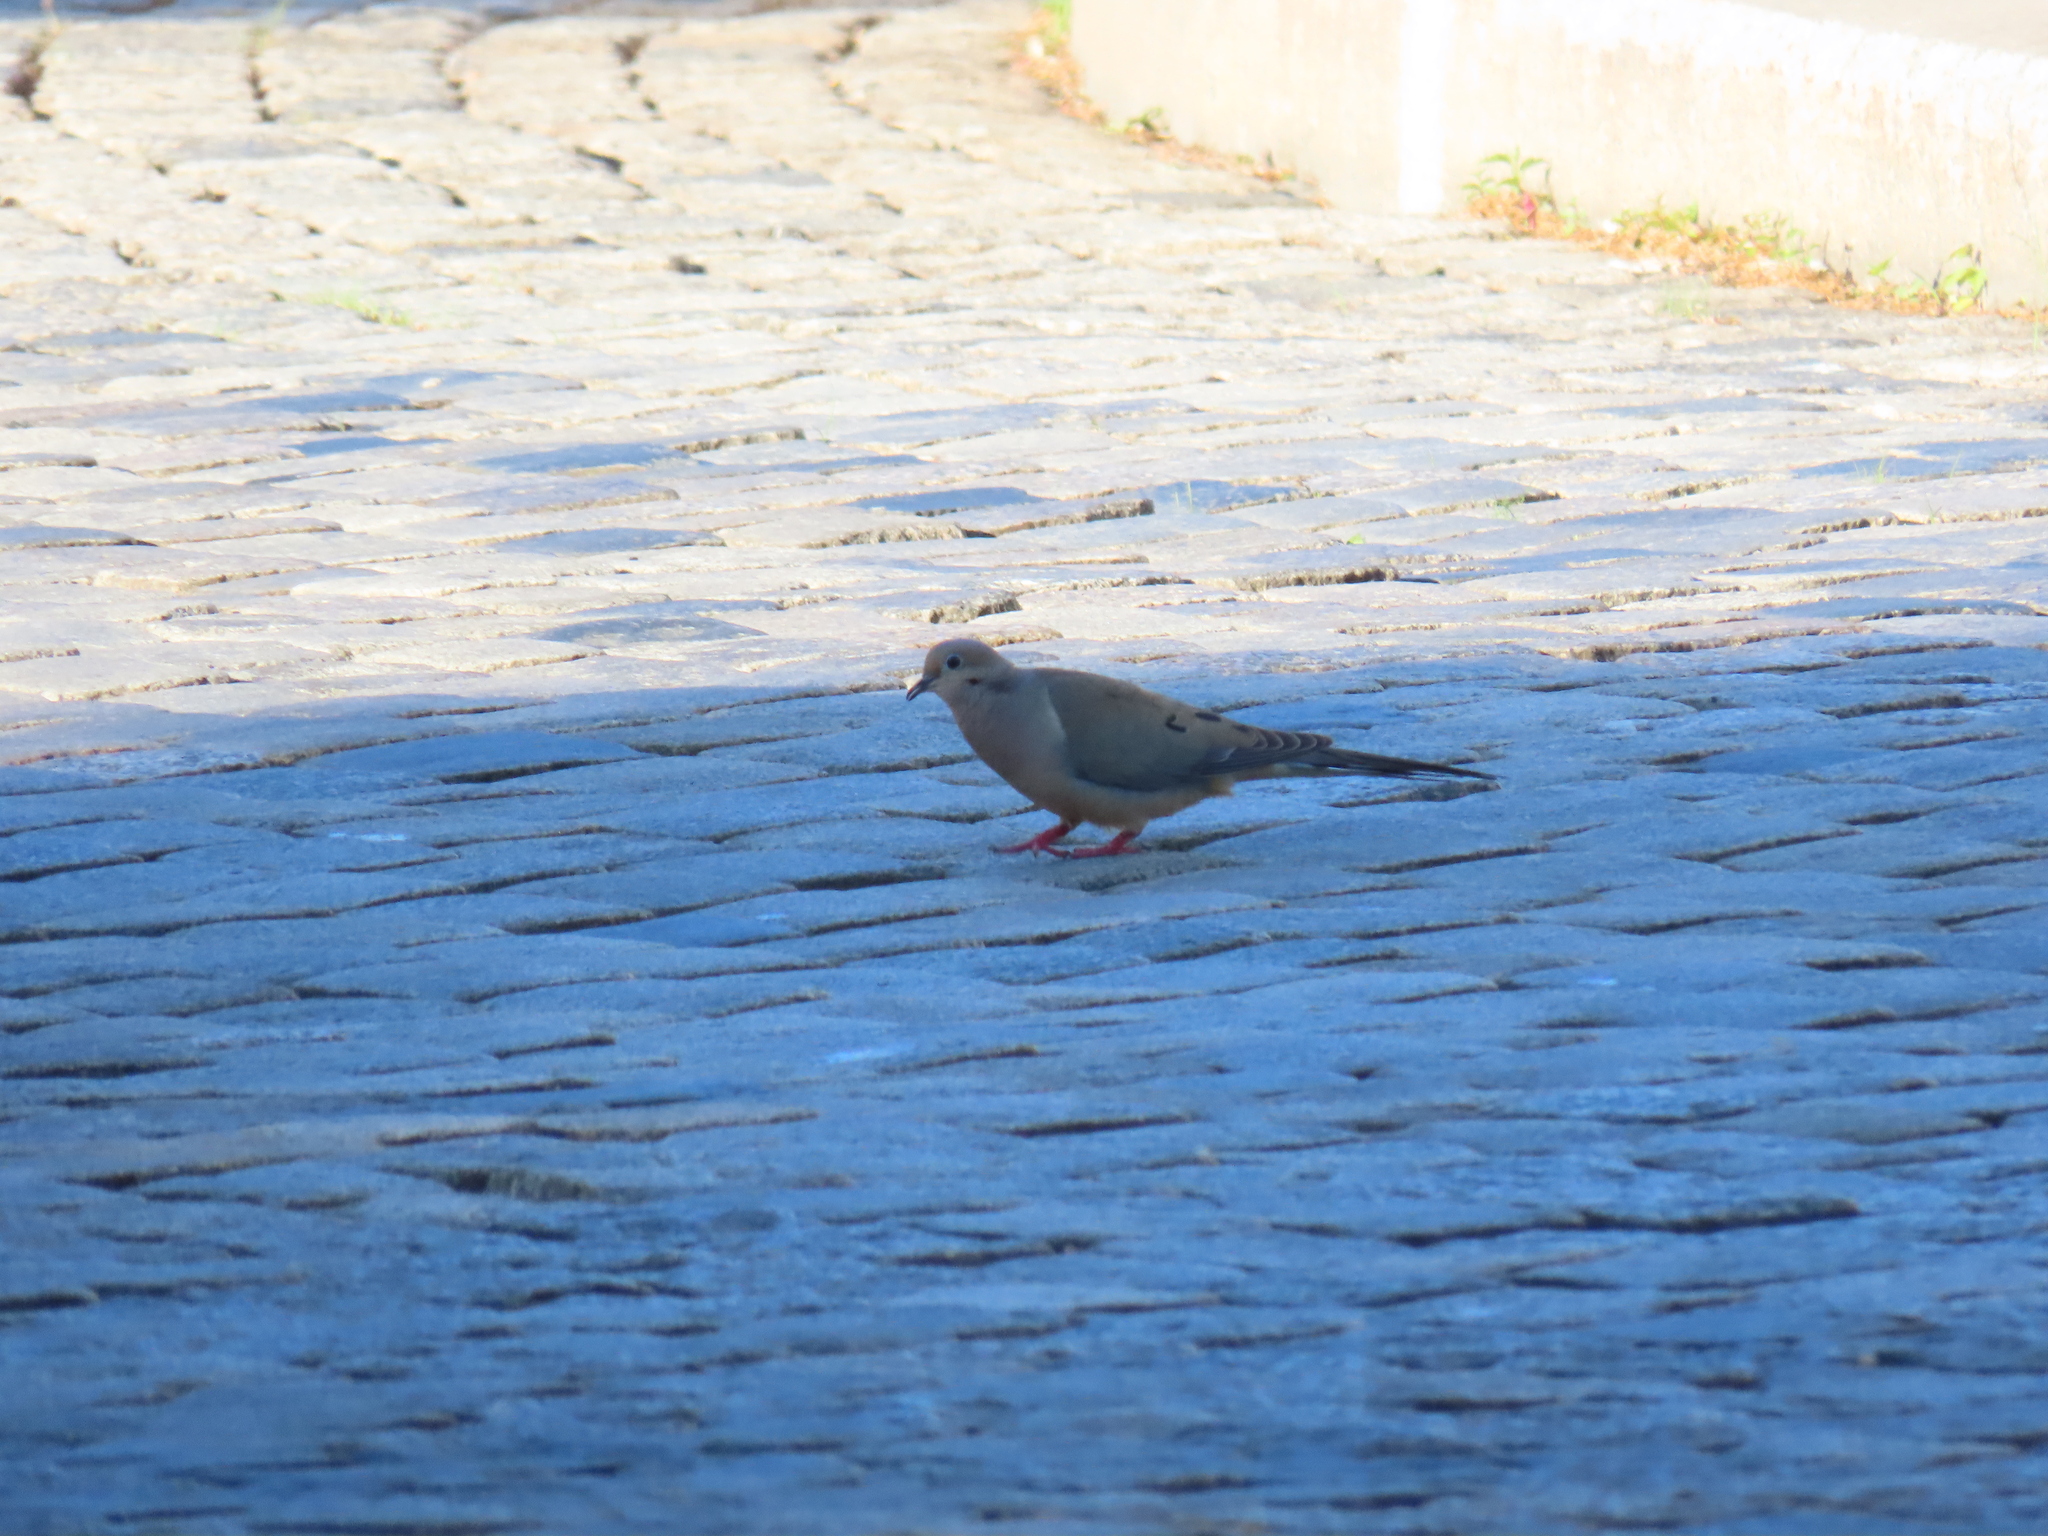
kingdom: Animalia
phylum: Chordata
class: Aves
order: Columbiformes
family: Columbidae
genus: Zenaida
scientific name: Zenaida macroura
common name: Mourning dove
